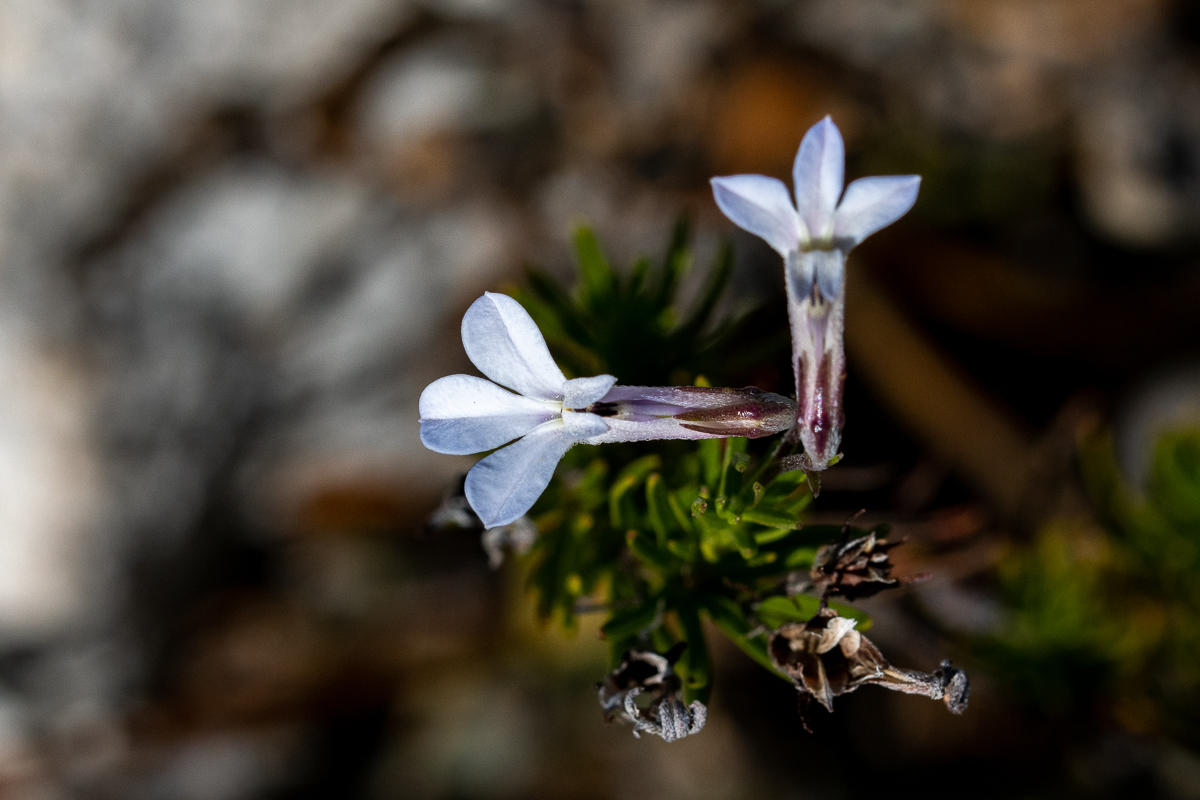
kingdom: Plantae
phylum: Tracheophyta
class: Magnoliopsida
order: Asterales
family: Campanulaceae
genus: Lobelia
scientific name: Lobelia pinifolia
